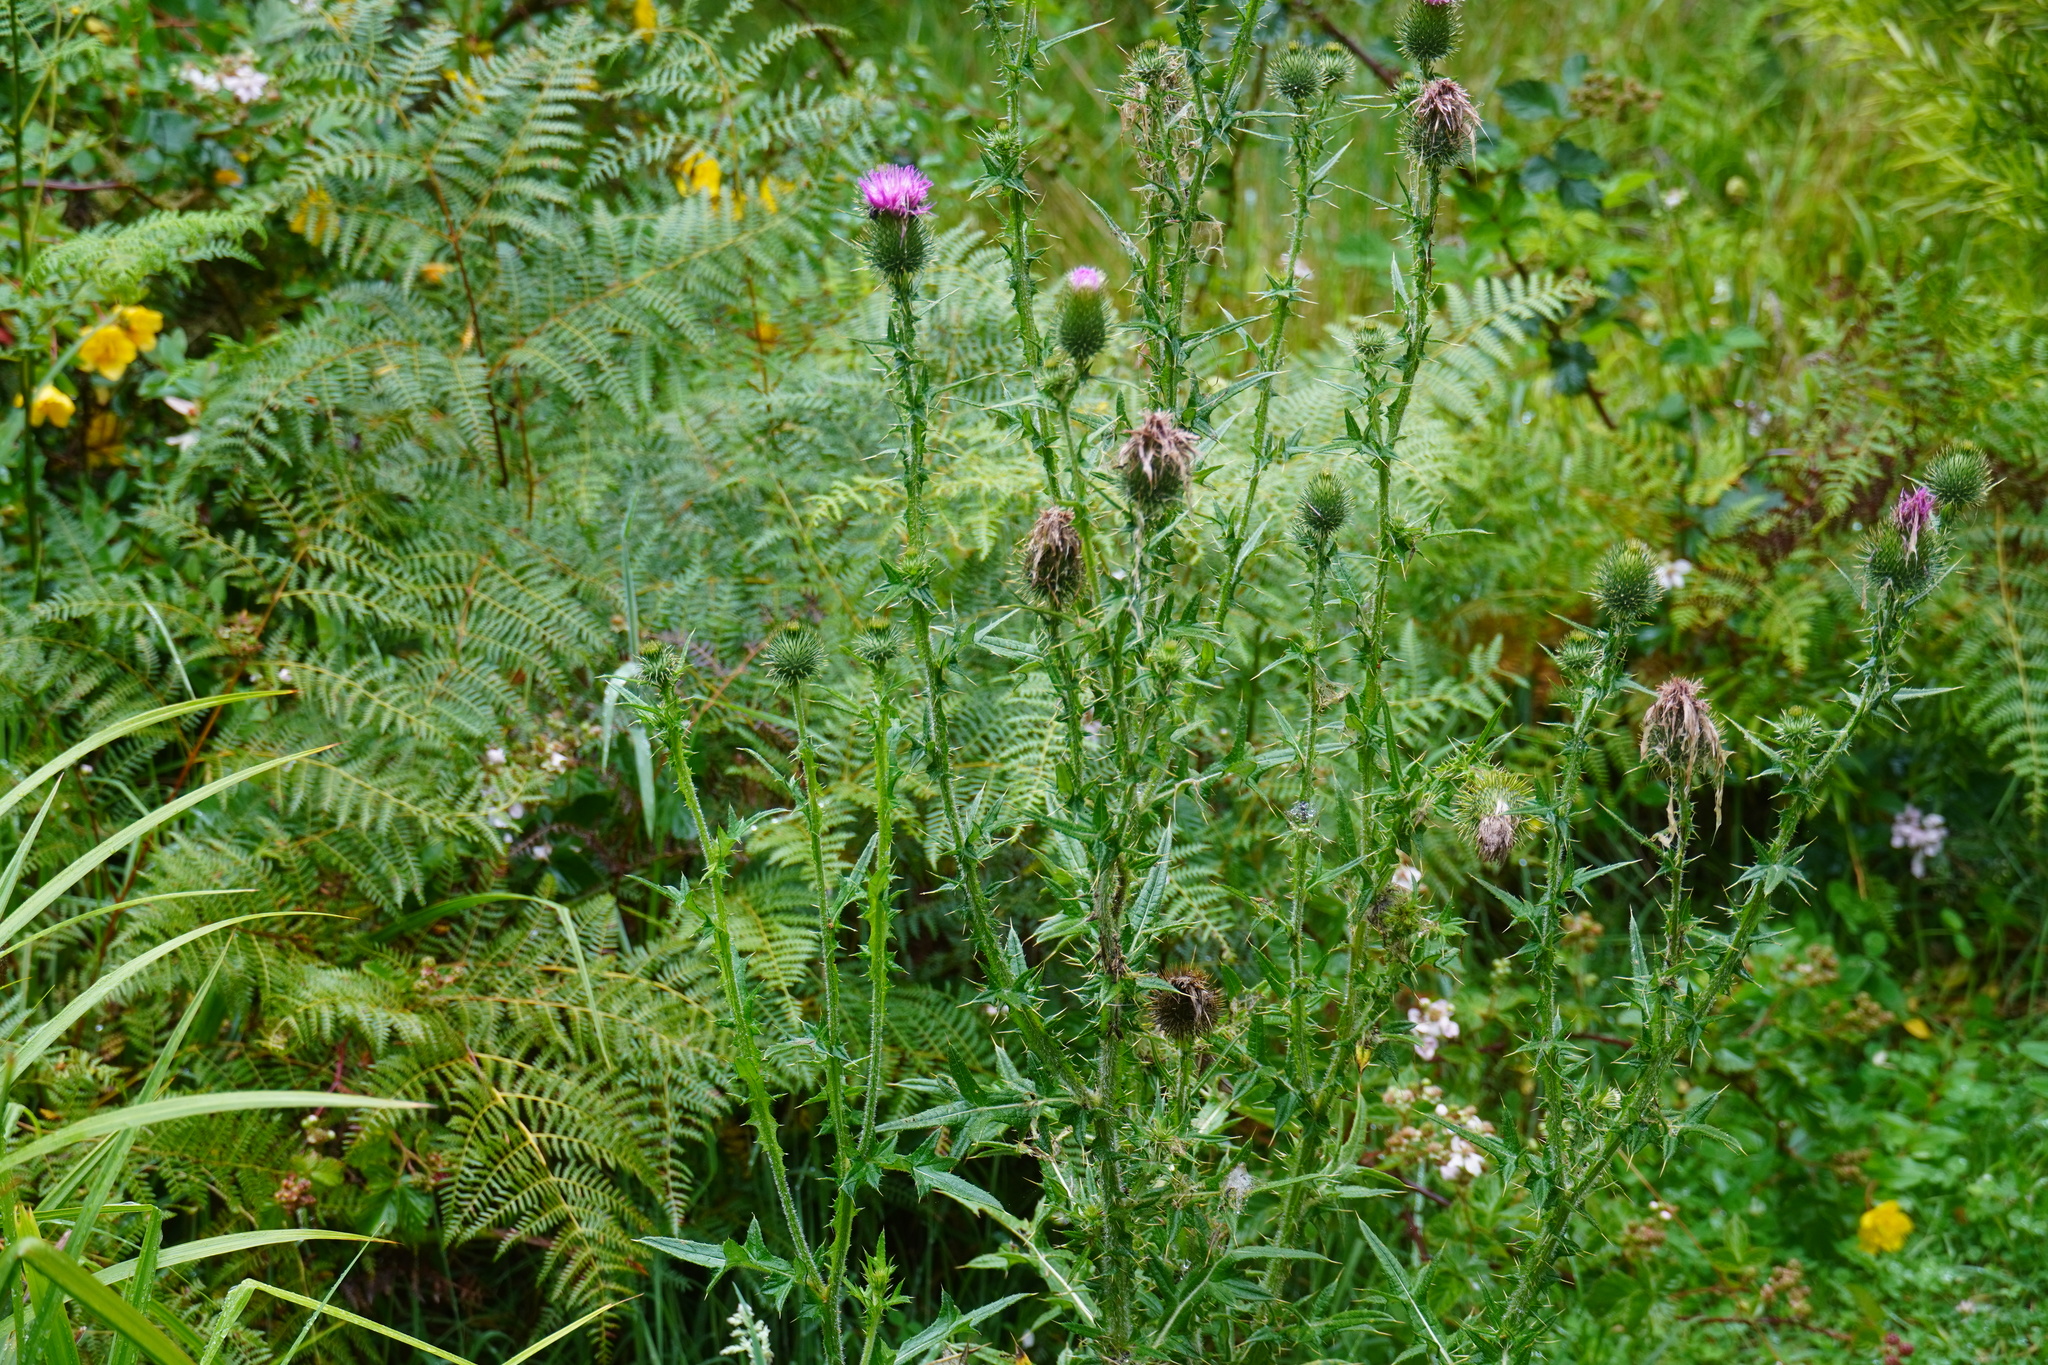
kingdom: Plantae
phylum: Tracheophyta
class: Magnoliopsida
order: Asterales
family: Asteraceae
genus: Cirsium
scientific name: Cirsium vulgare
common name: Bull thistle
